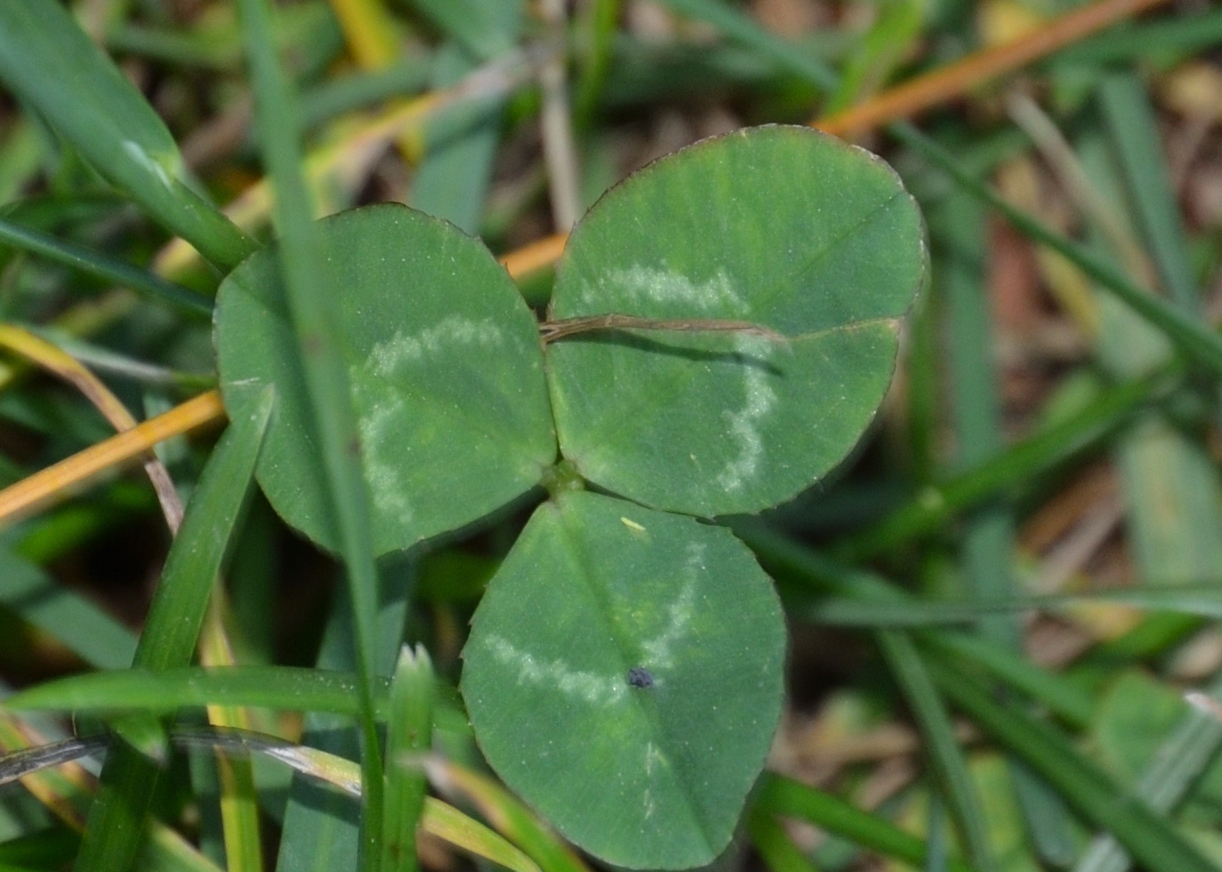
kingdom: Plantae
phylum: Tracheophyta
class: Magnoliopsida
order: Fabales
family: Fabaceae
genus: Trifolium
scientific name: Trifolium repens
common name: White clover
